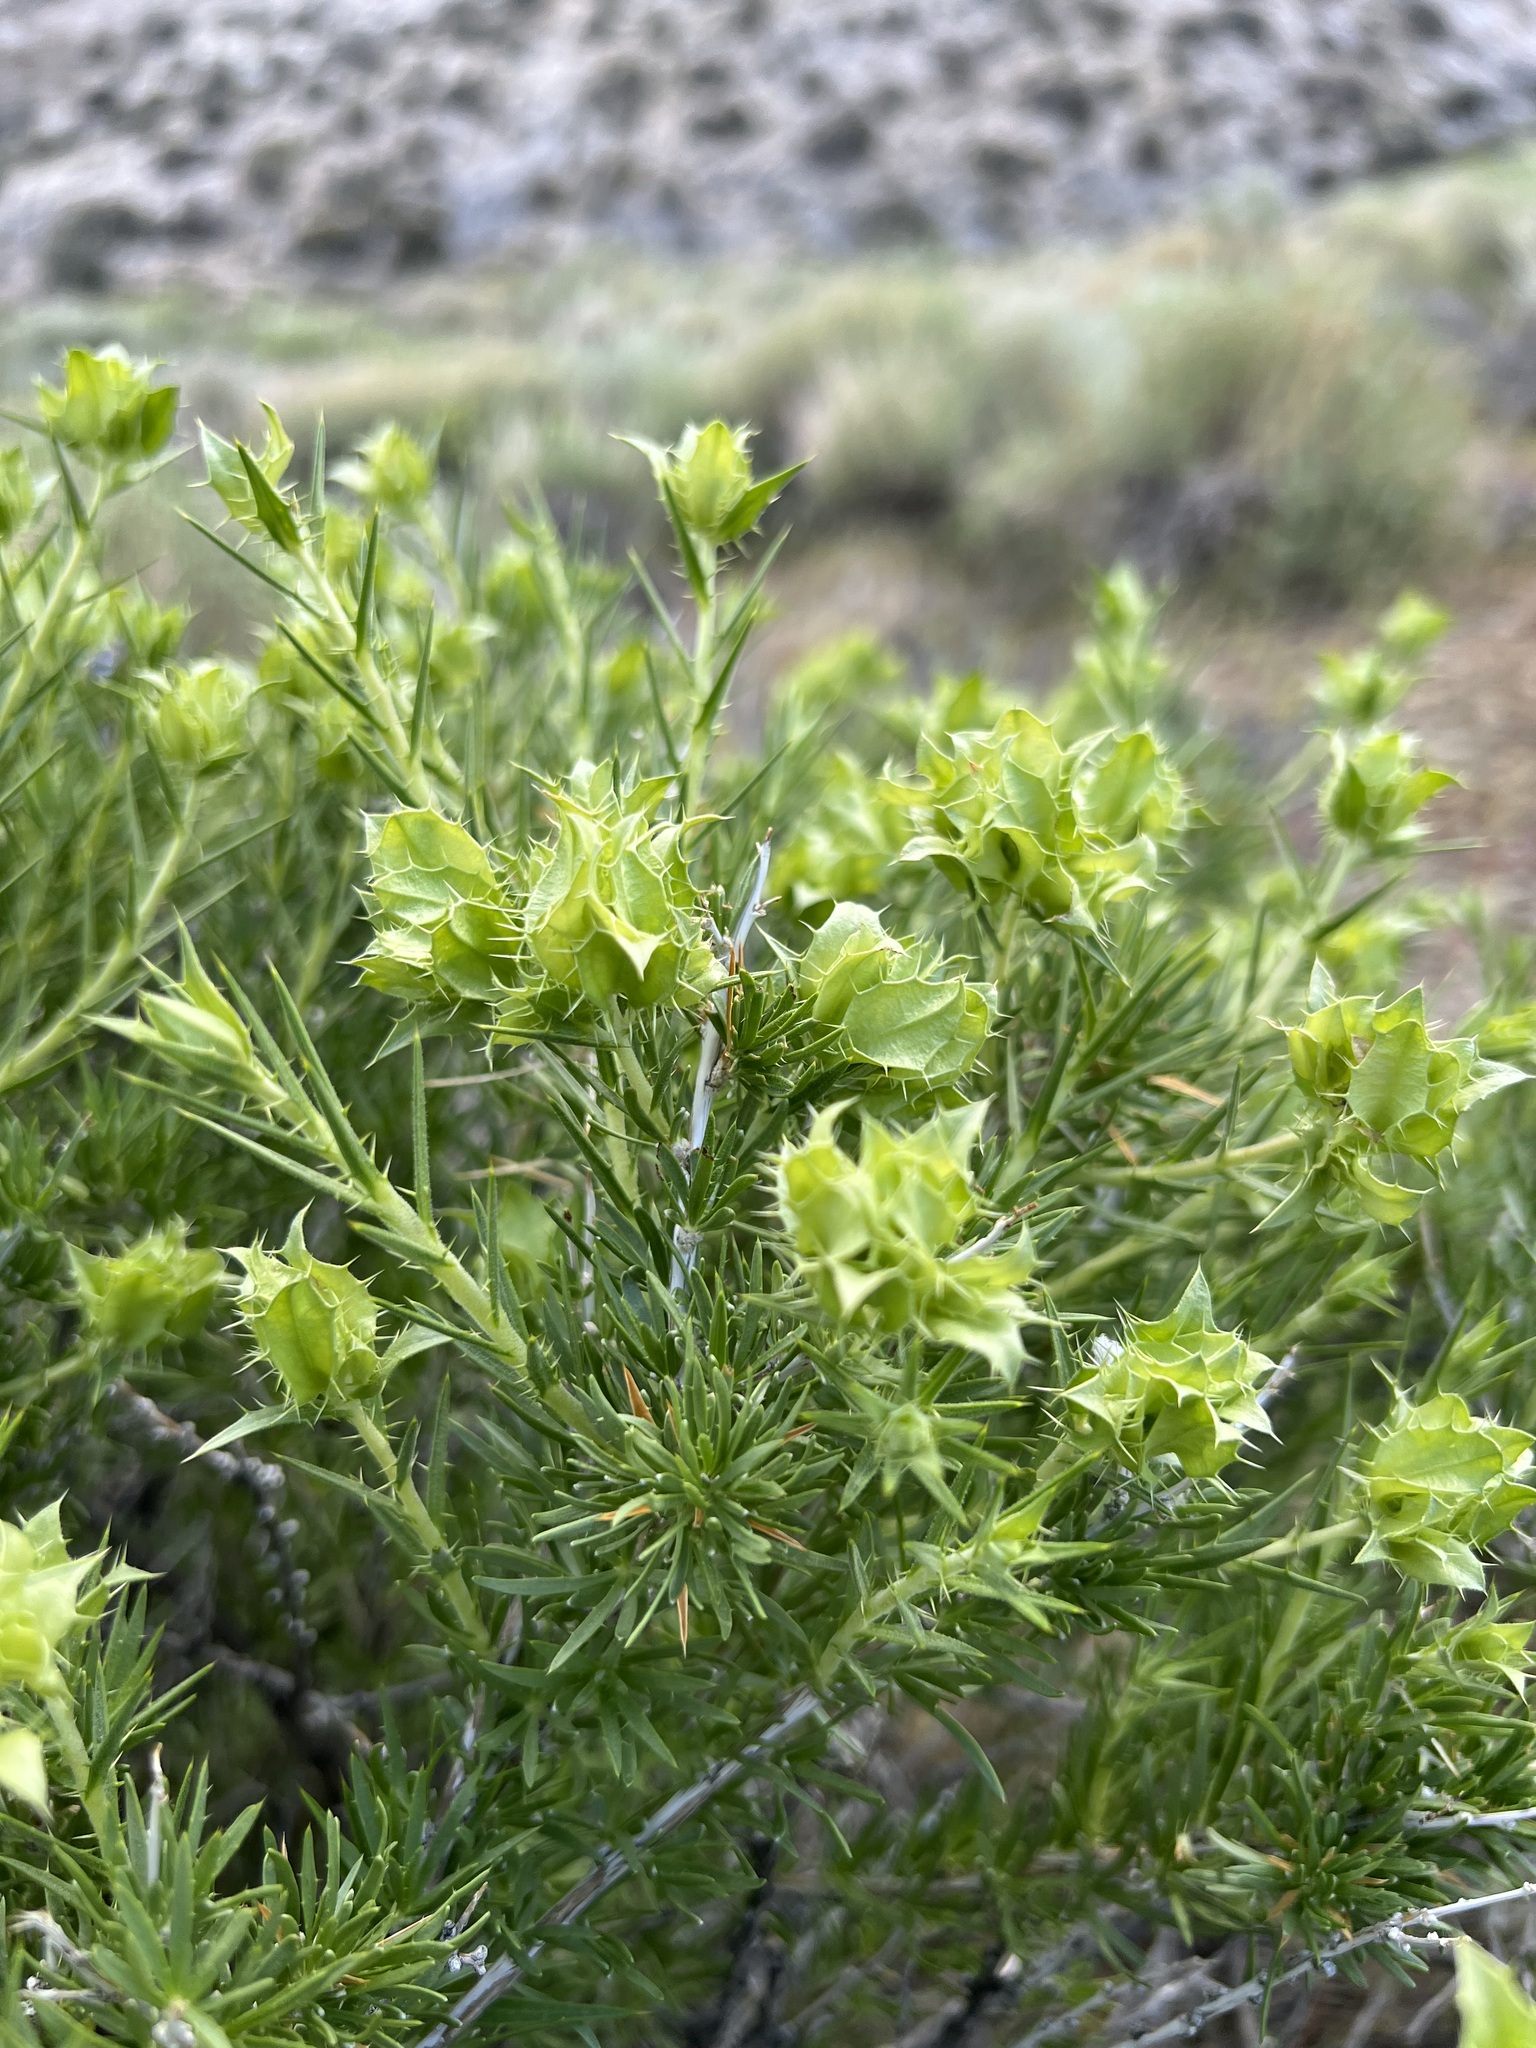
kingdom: Plantae
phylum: Tracheophyta
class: Magnoliopsida
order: Asterales
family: Asteraceae
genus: Hecastocleis
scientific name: Hecastocleis shockleyi
